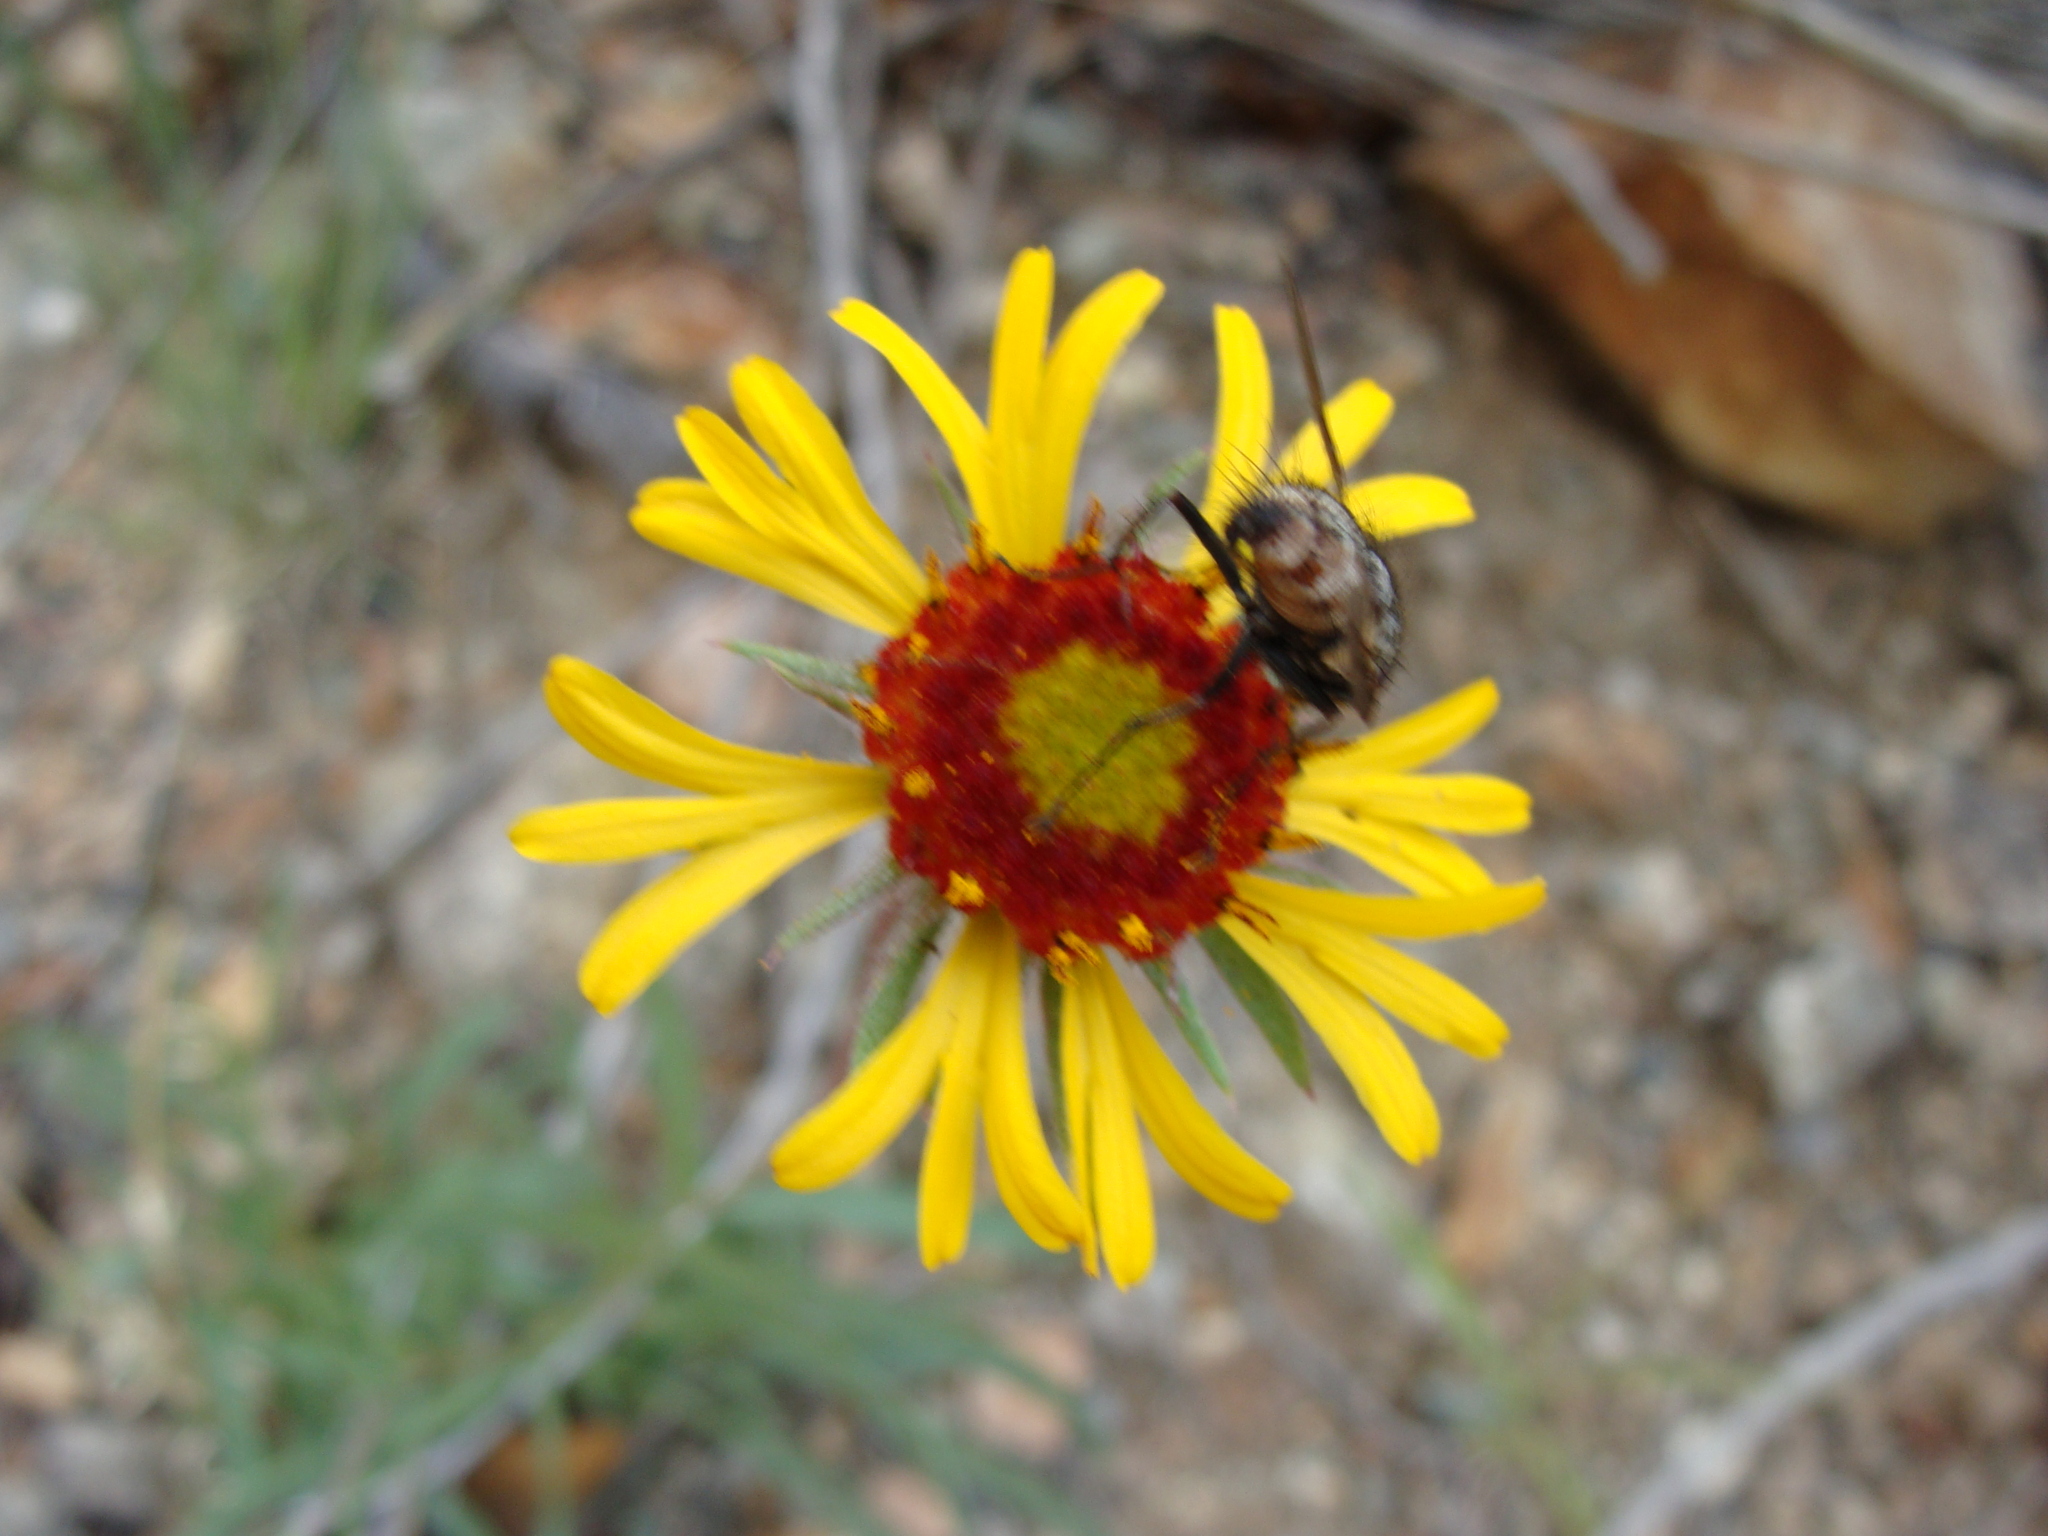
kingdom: Plantae
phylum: Tracheophyta
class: Magnoliopsida
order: Asterales
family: Asteraceae
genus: Gaillardia
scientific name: Gaillardia pinnatifida
